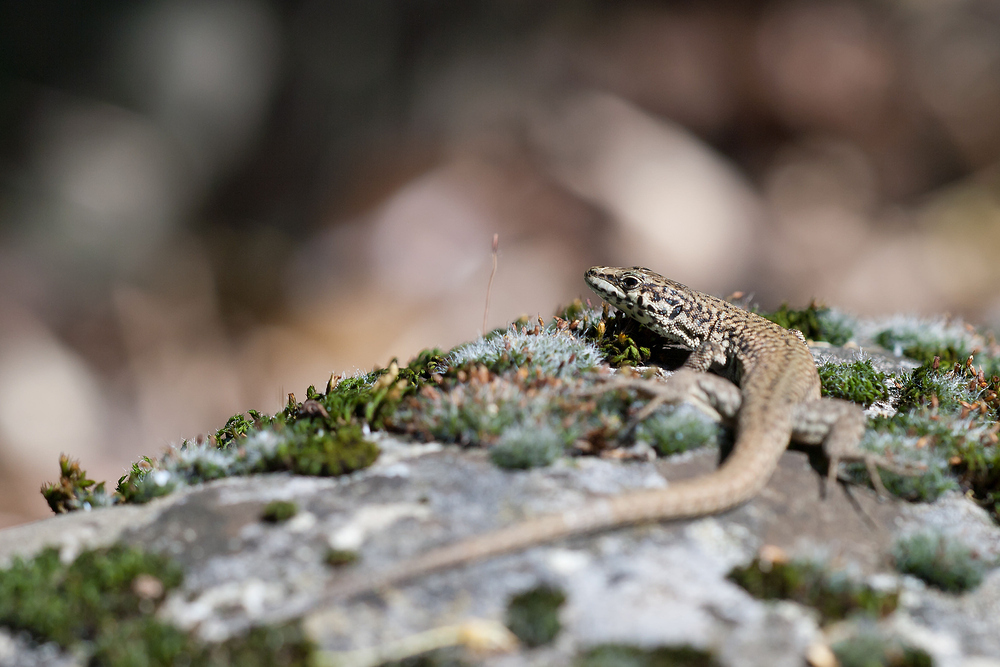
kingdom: Animalia
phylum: Chordata
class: Squamata
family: Lacertidae
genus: Podarcis
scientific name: Podarcis liolepis
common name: Catalonian wall lizard
